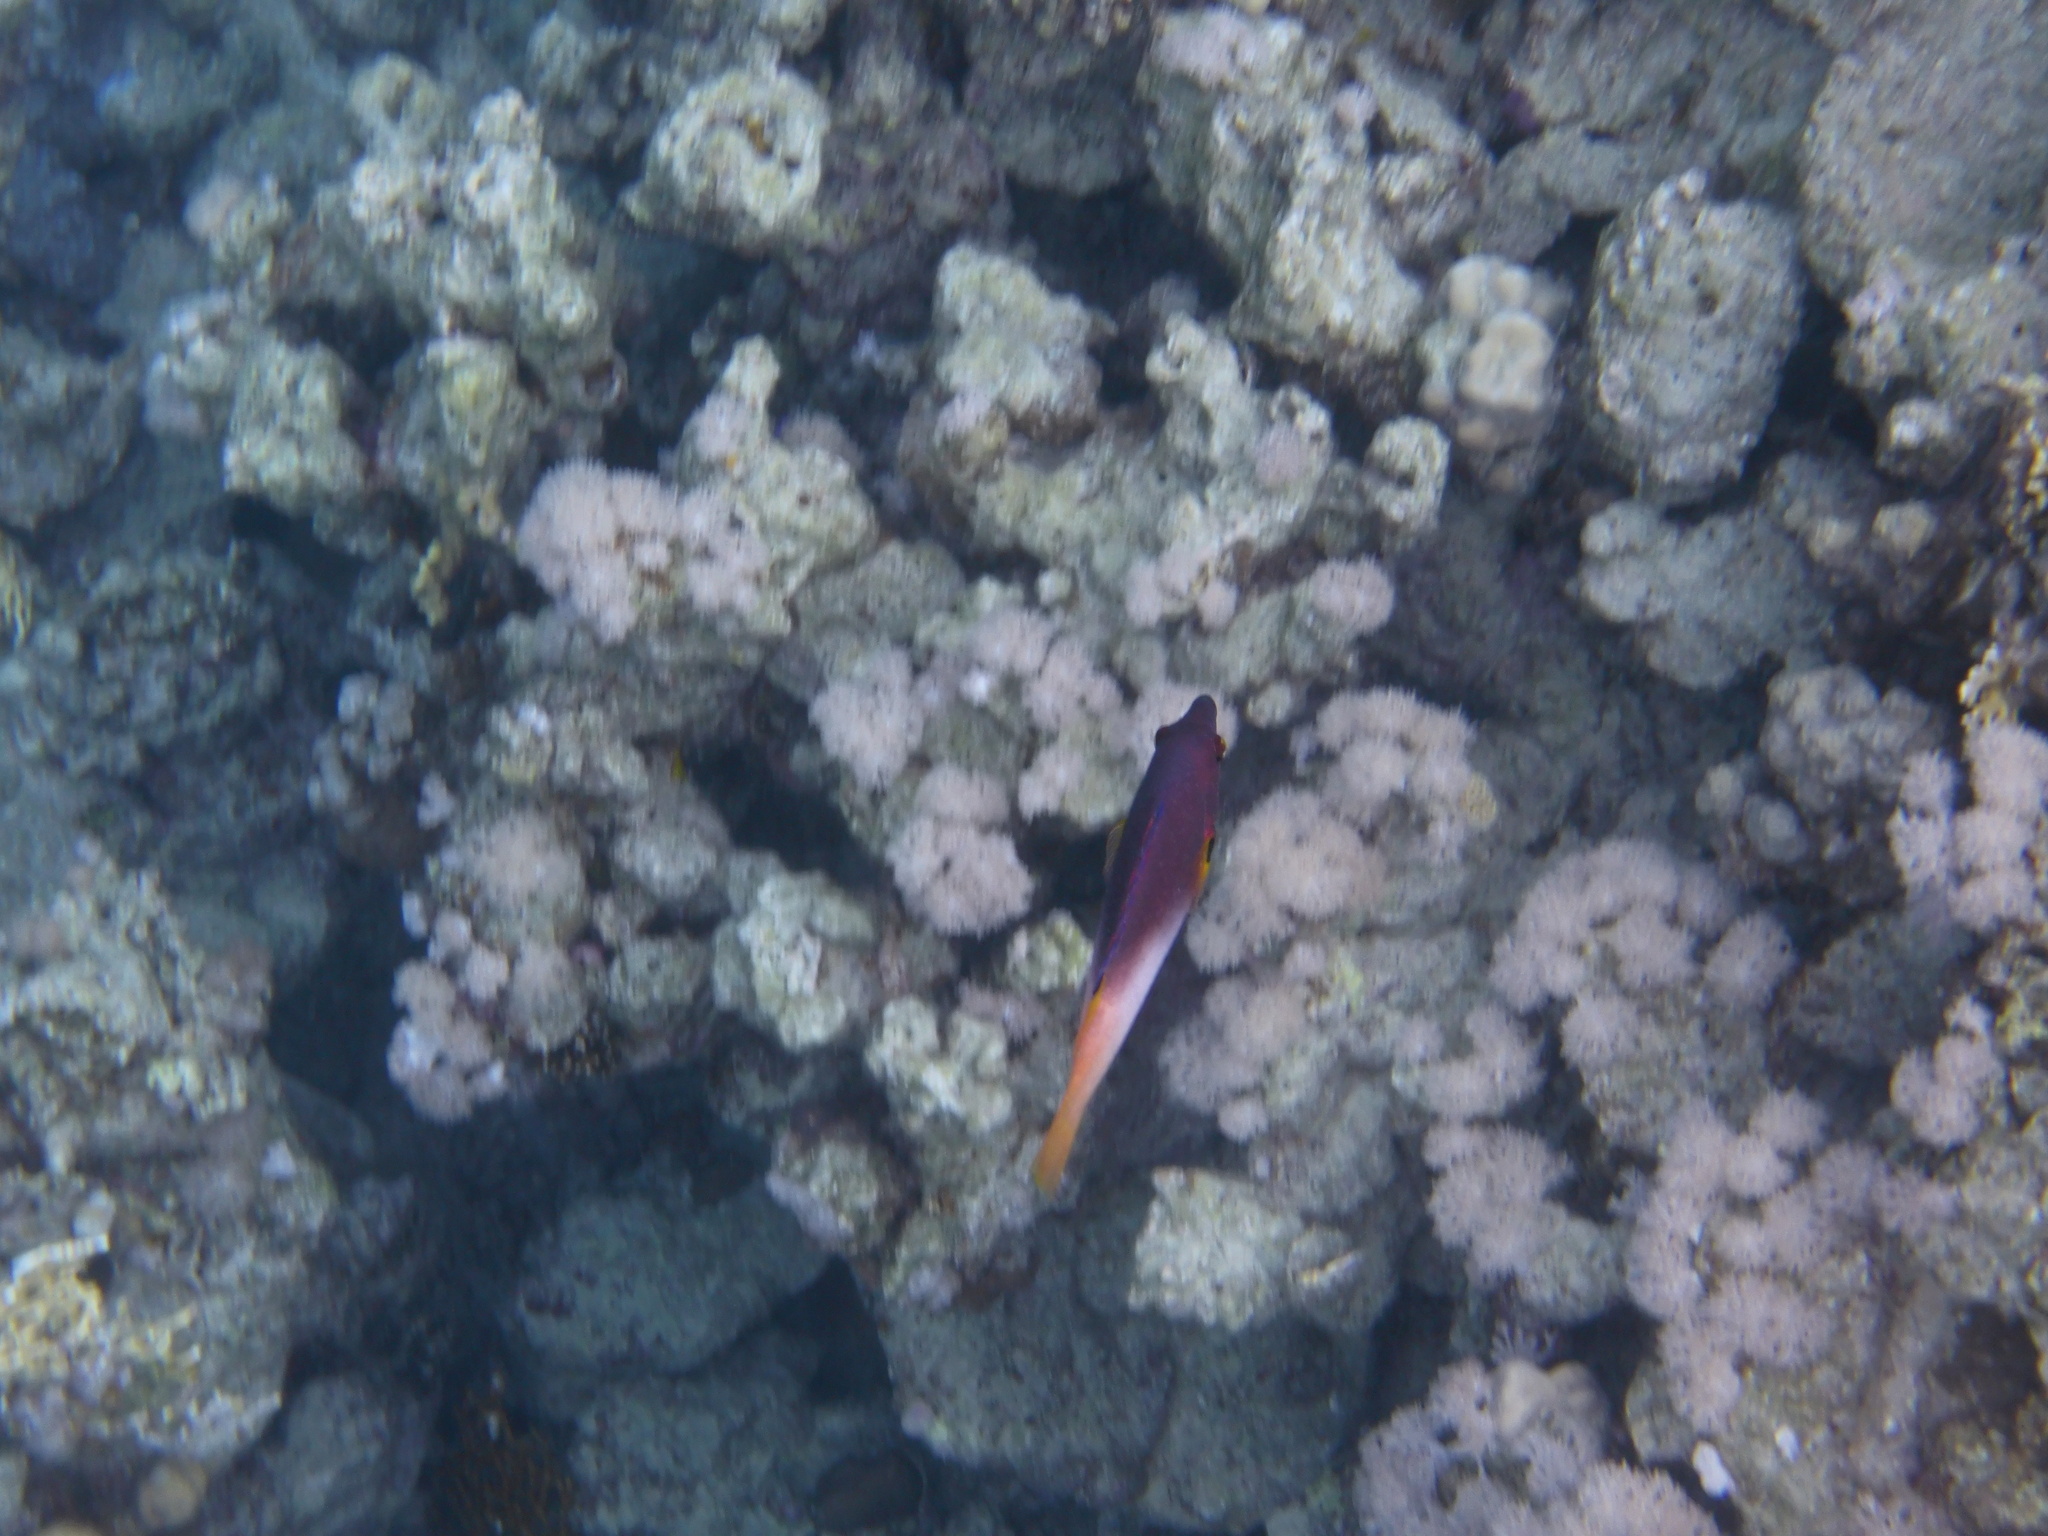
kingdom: Animalia
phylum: Chordata
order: Perciformes
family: Labridae
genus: Bodianus
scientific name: Bodianus axillaris
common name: Axilspot hogfish
